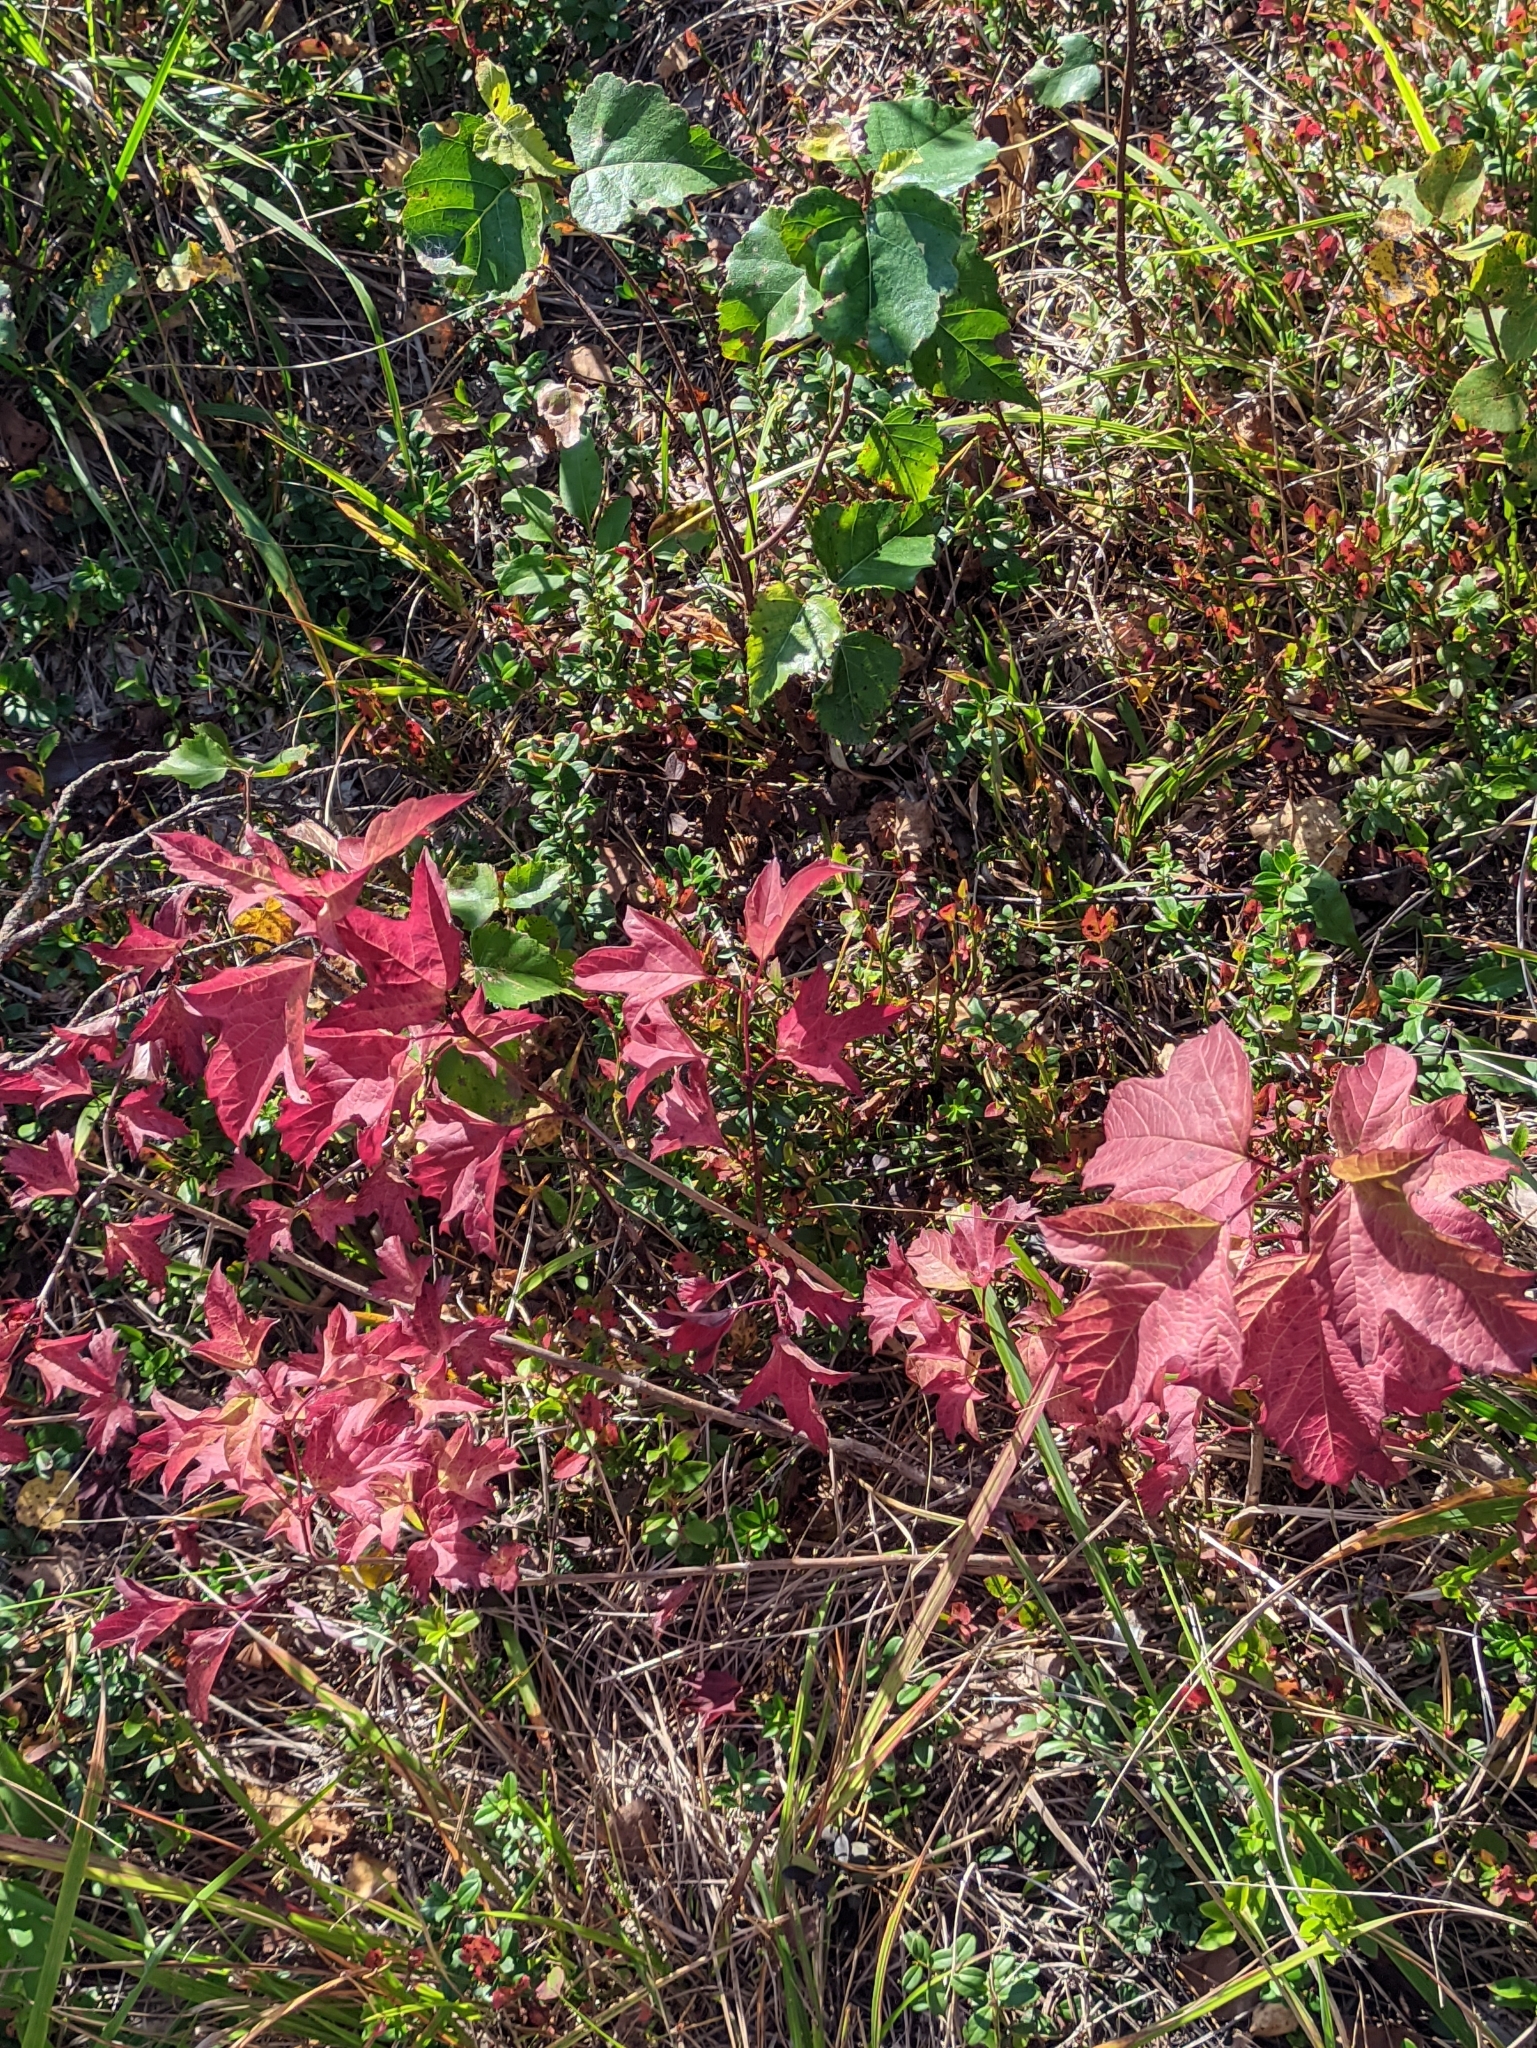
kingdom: Plantae
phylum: Tracheophyta
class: Magnoliopsida
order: Dipsacales
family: Viburnaceae
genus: Viburnum
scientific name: Viburnum opulus
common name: Guelder-rose
